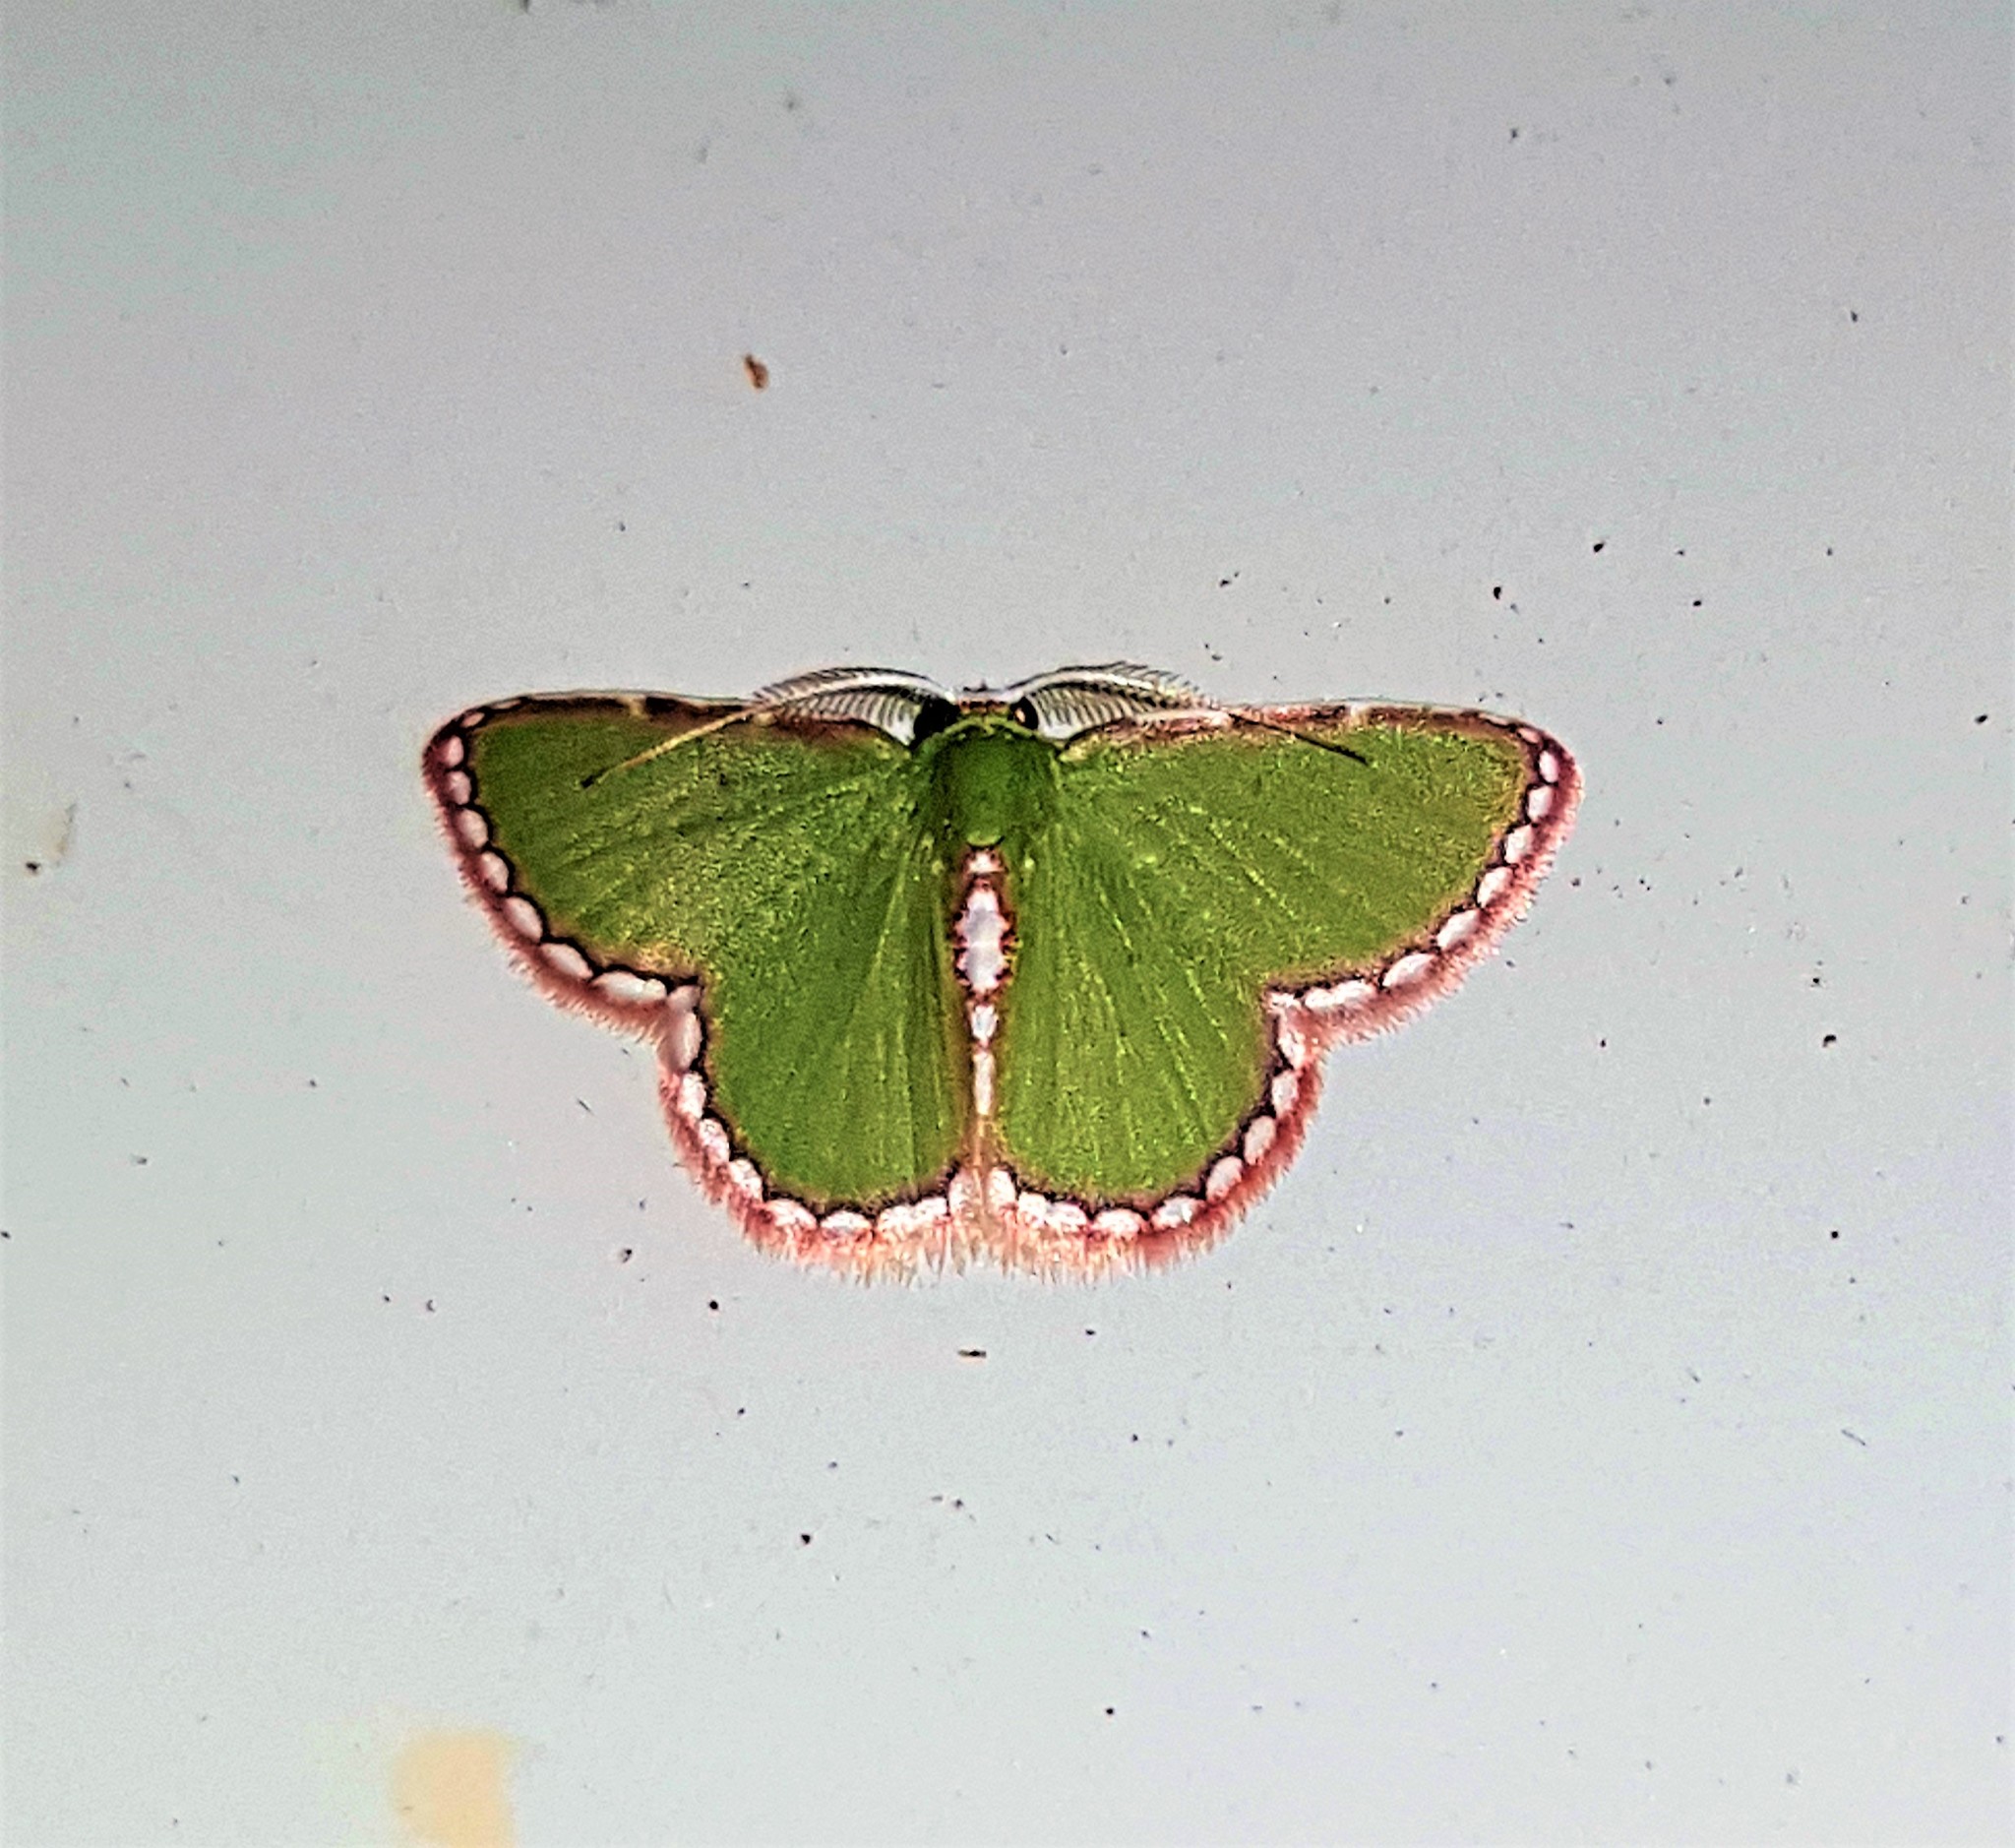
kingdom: Animalia
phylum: Arthropoda
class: Insecta
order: Lepidoptera
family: Geometridae
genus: Synchlora
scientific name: Synchlora pulchrifimbria
